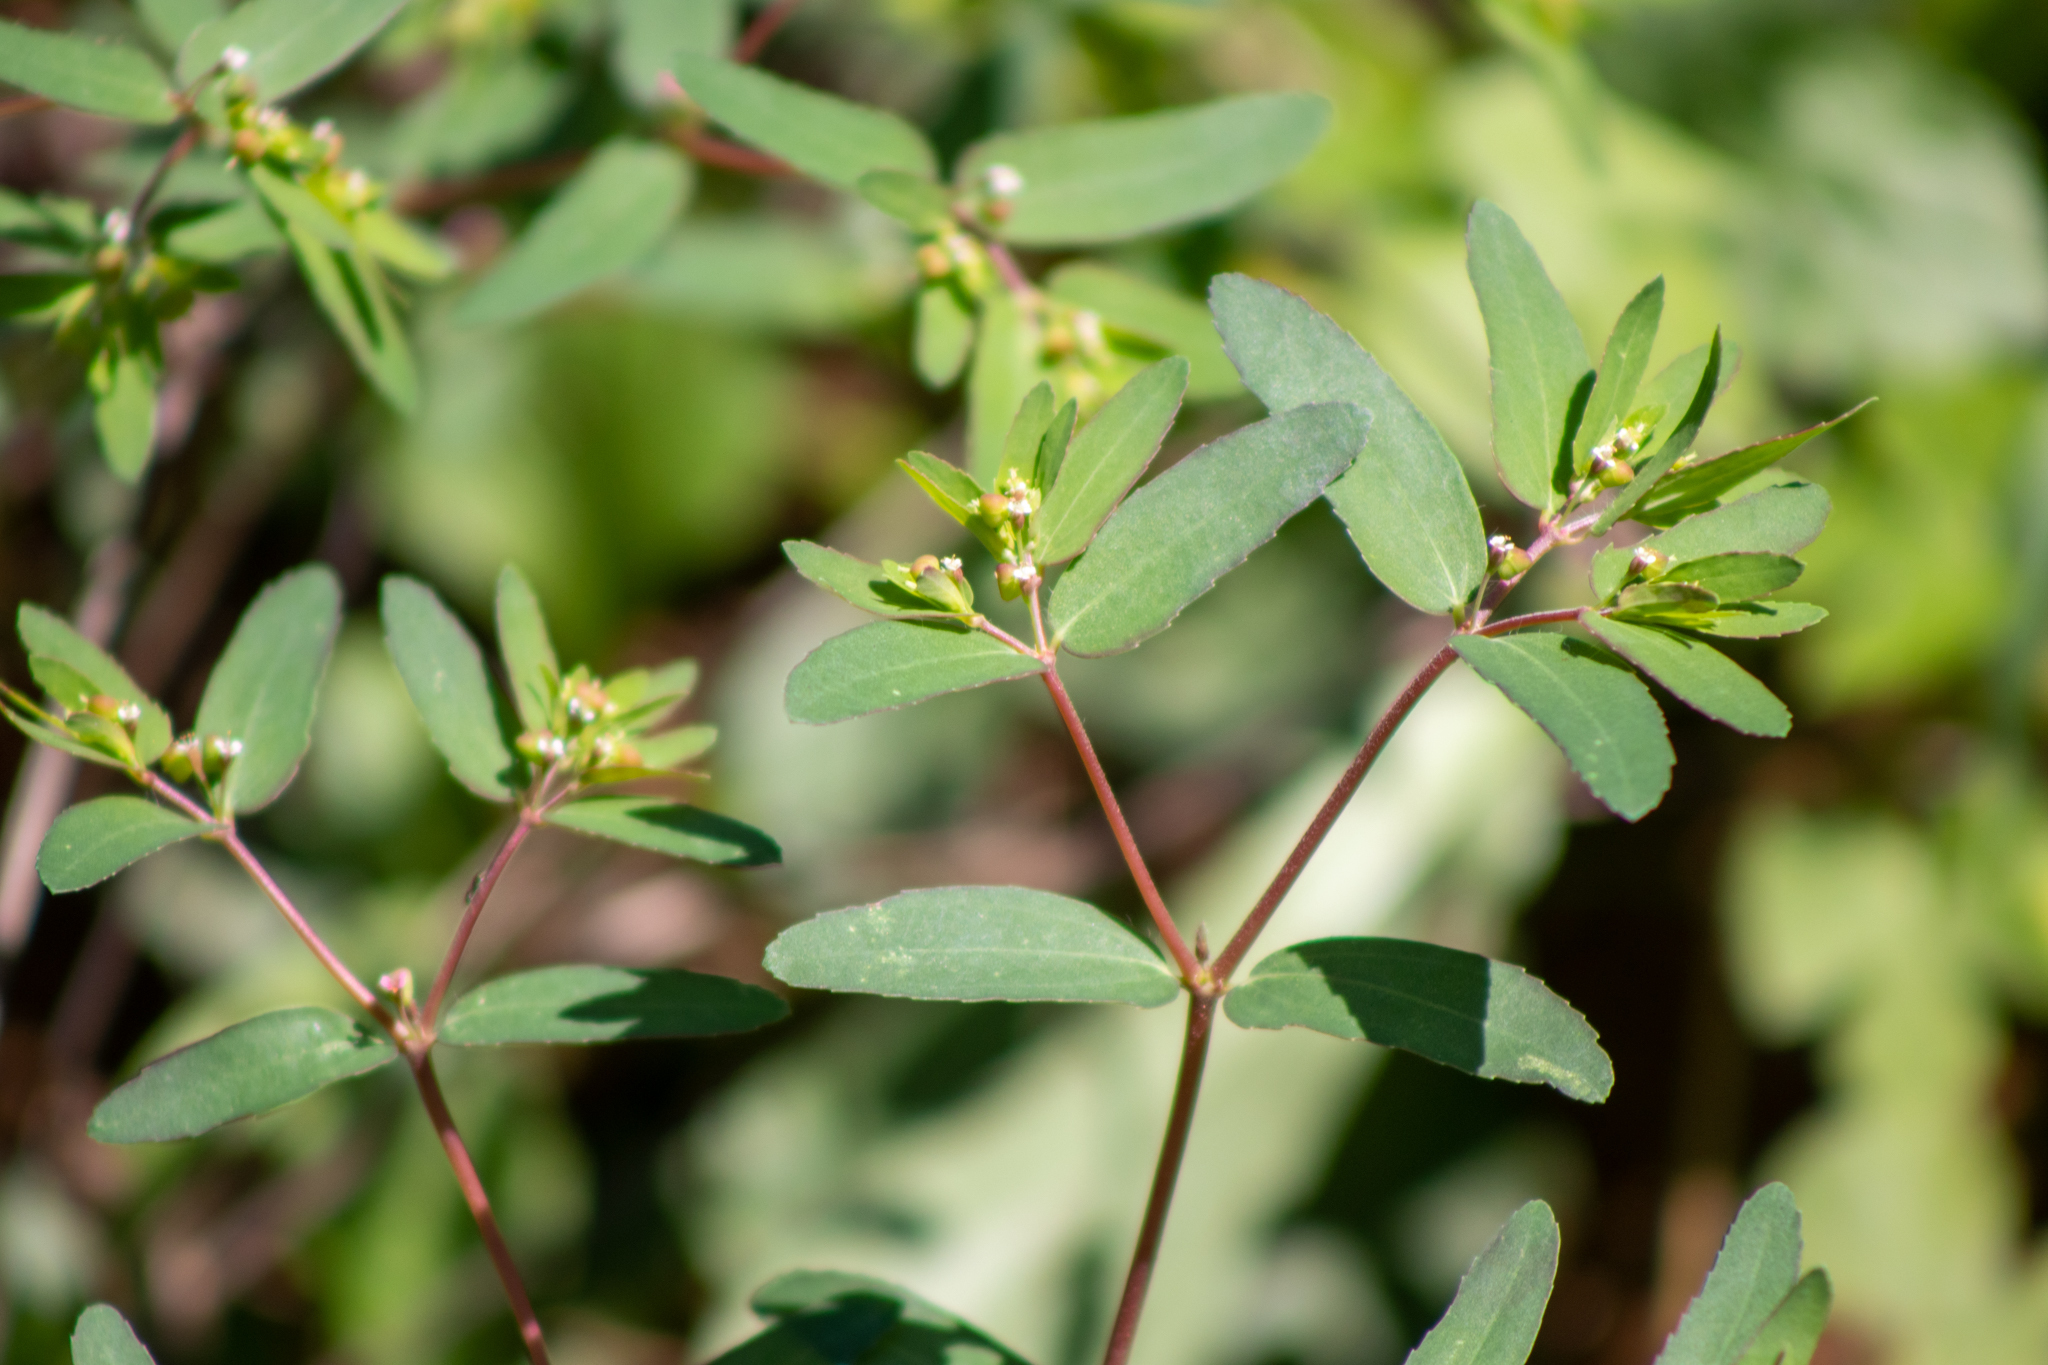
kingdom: Plantae
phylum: Tracheophyta
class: Magnoliopsida
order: Malpighiales
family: Euphorbiaceae
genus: Euphorbia
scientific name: Euphorbia nutans
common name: Eyebane
